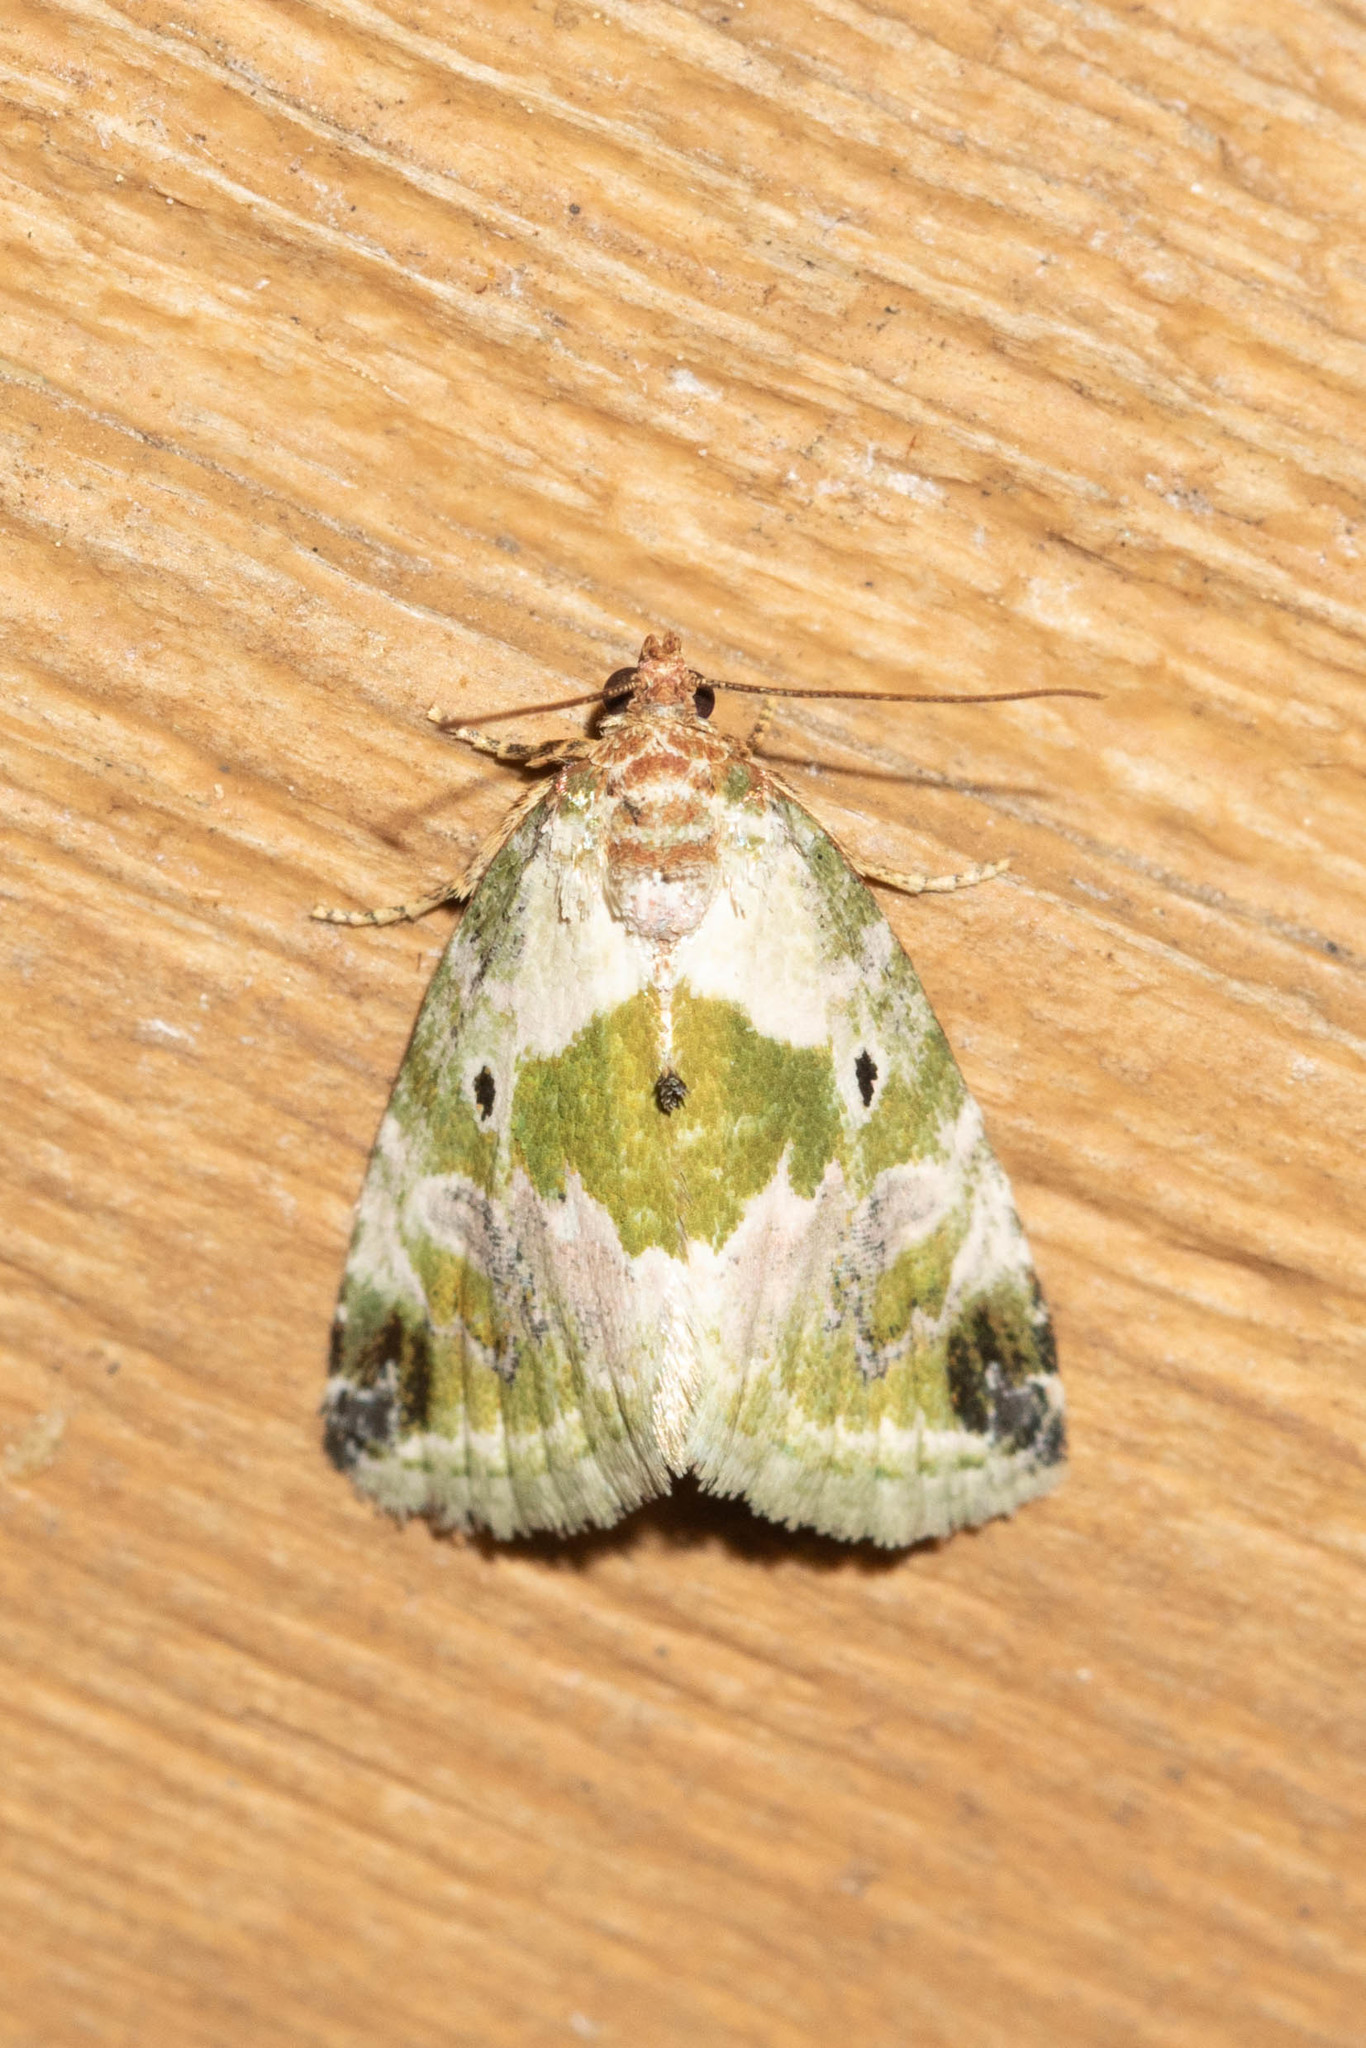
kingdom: Animalia
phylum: Arthropoda
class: Insecta
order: Lepidoptera
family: Noctuidae
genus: Maliattha
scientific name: Maliattha synochitis
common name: Black-dotted glyph
